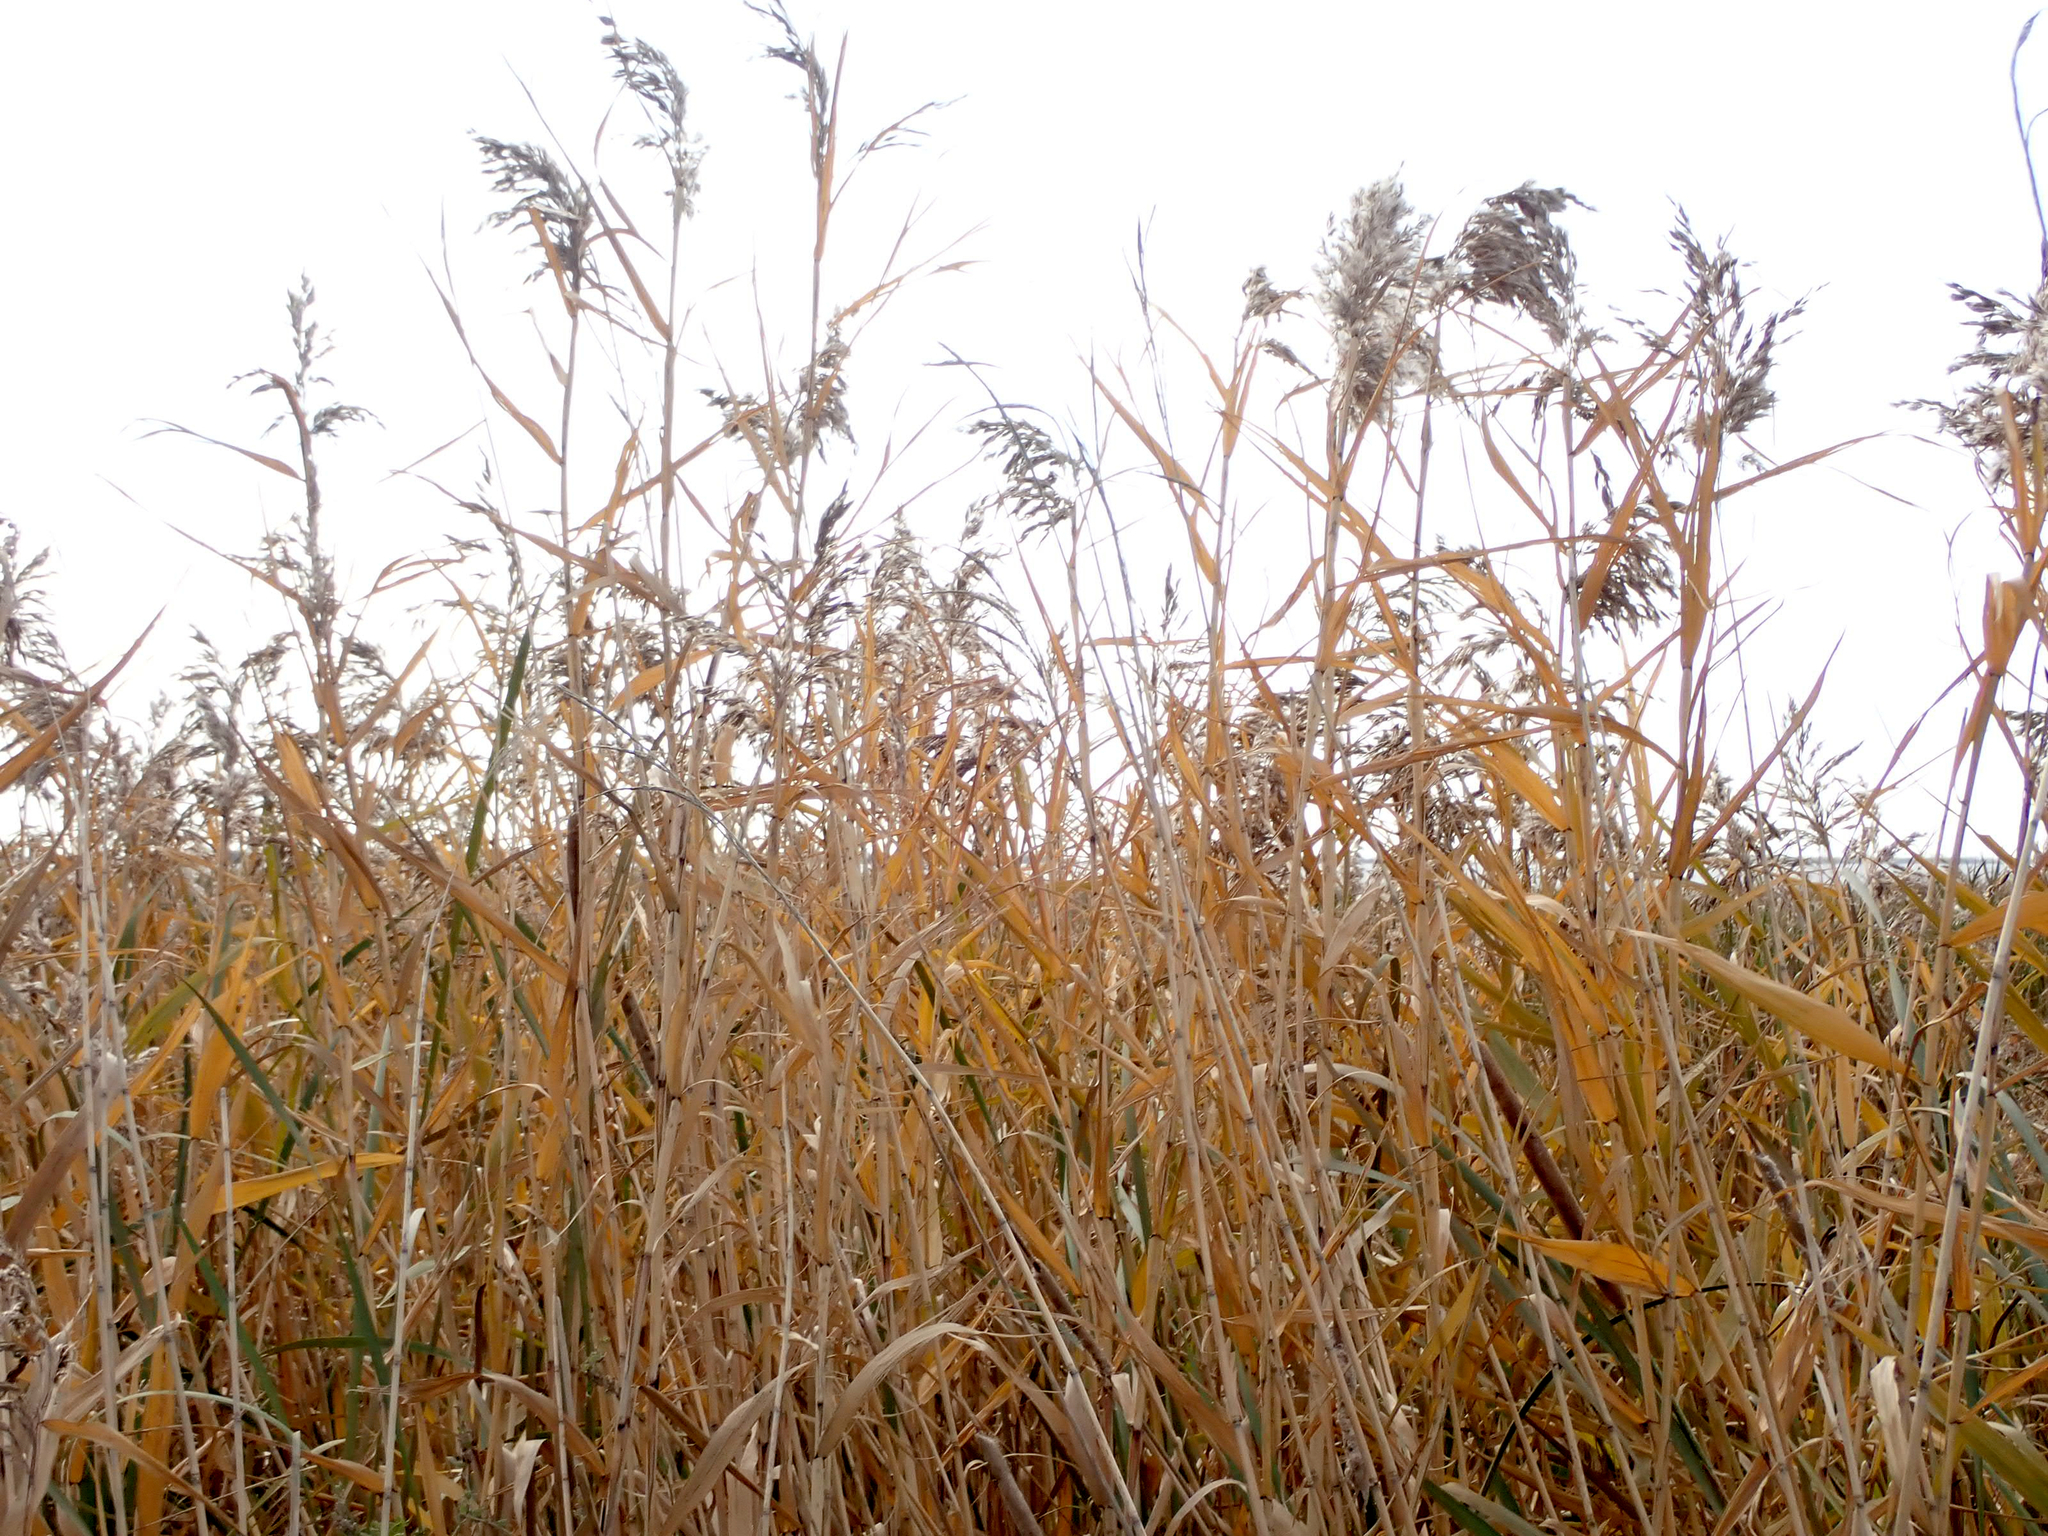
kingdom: Plantae
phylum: Tracheophyta
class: Liliopsida
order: Poales
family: Poaceae
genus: Phragmites
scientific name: Phragmites australis
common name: Common reed
